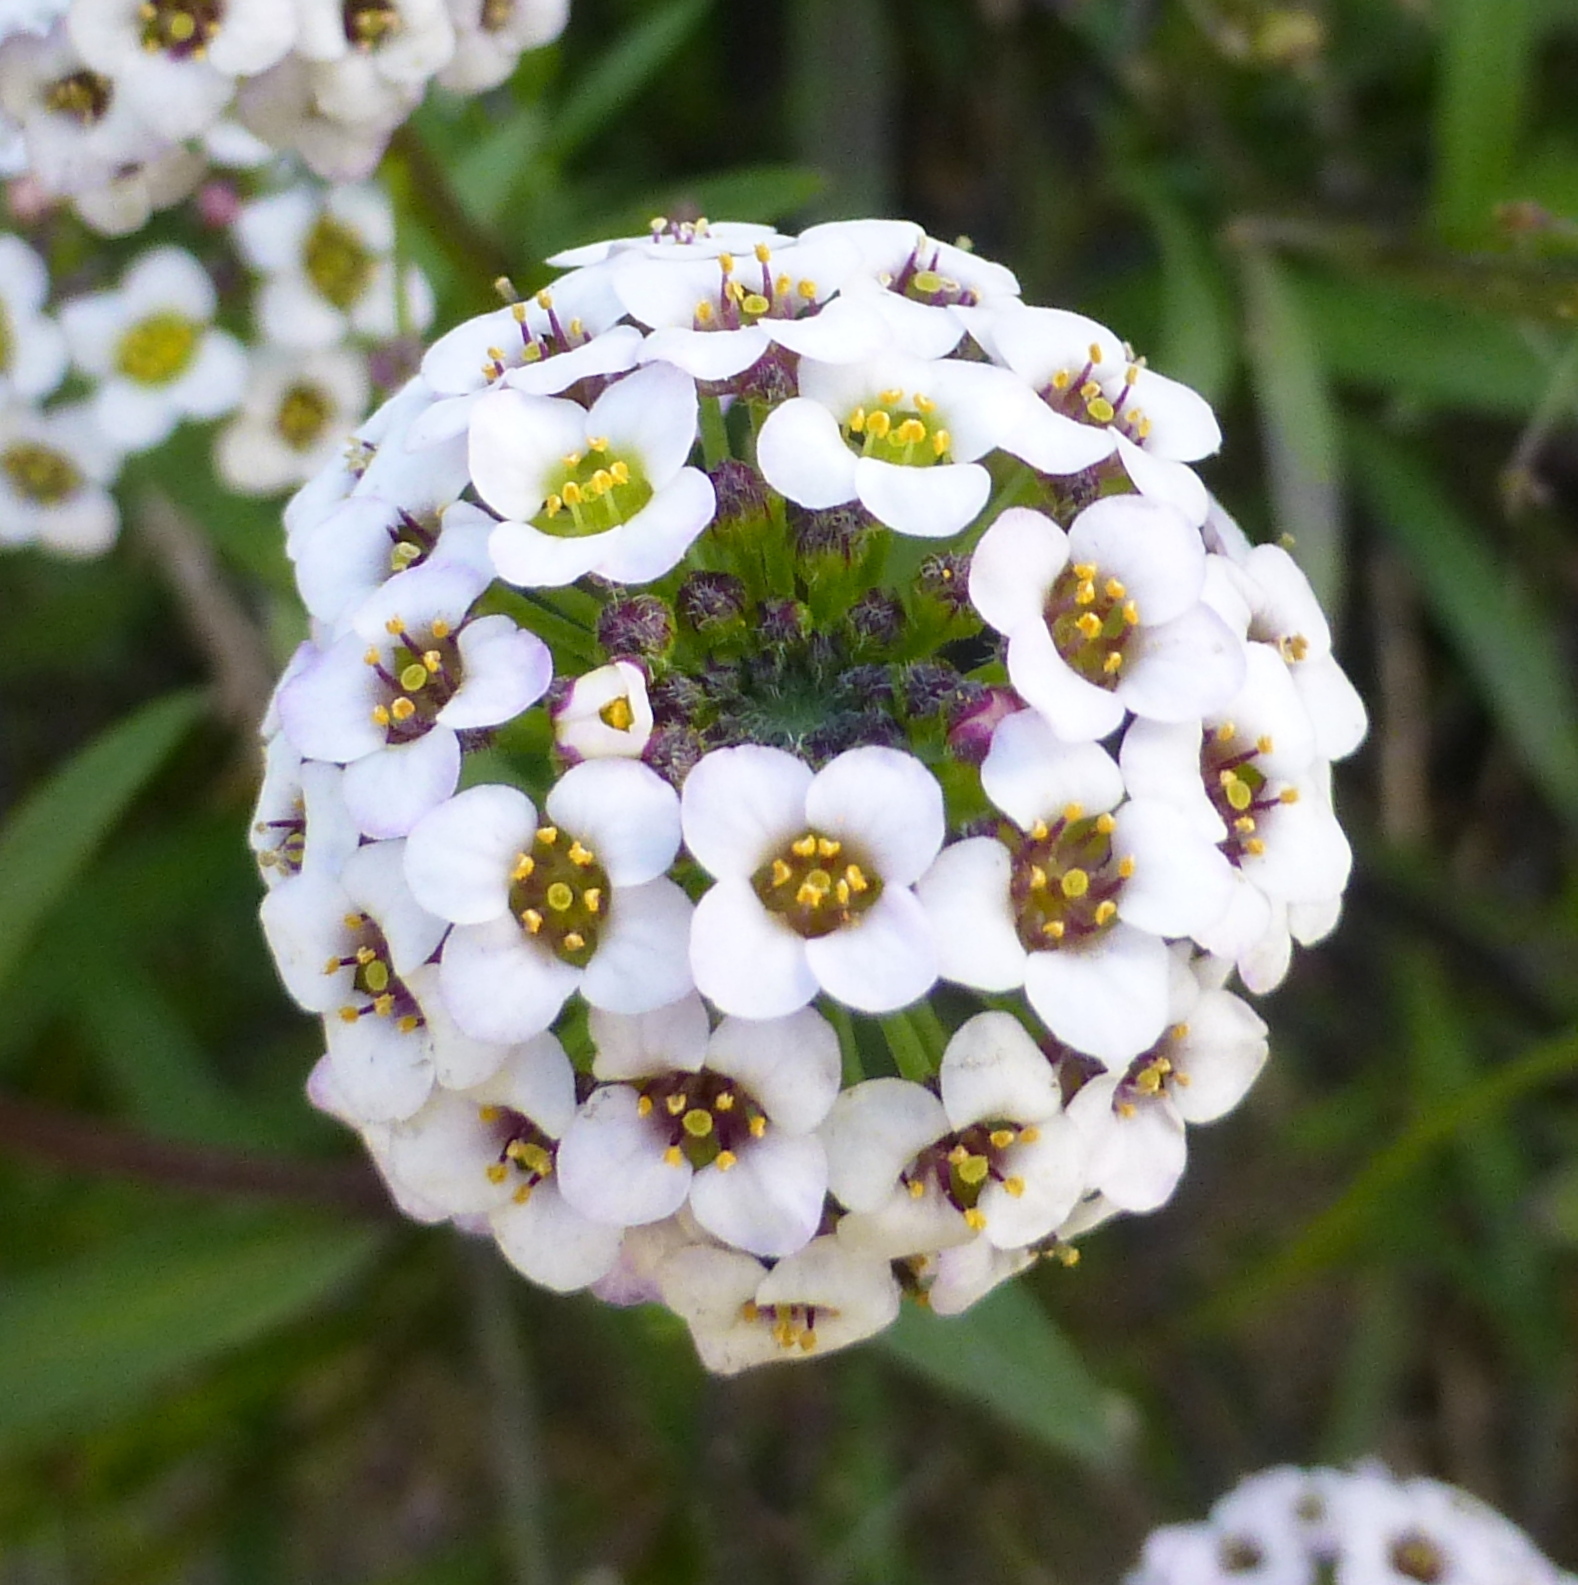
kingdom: Plantae
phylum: Tracheophyta
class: Magnoliopsida
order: Brassicales
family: Brassicaceae
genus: Lobularia
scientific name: Lobularia maritima
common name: Sweet alison
